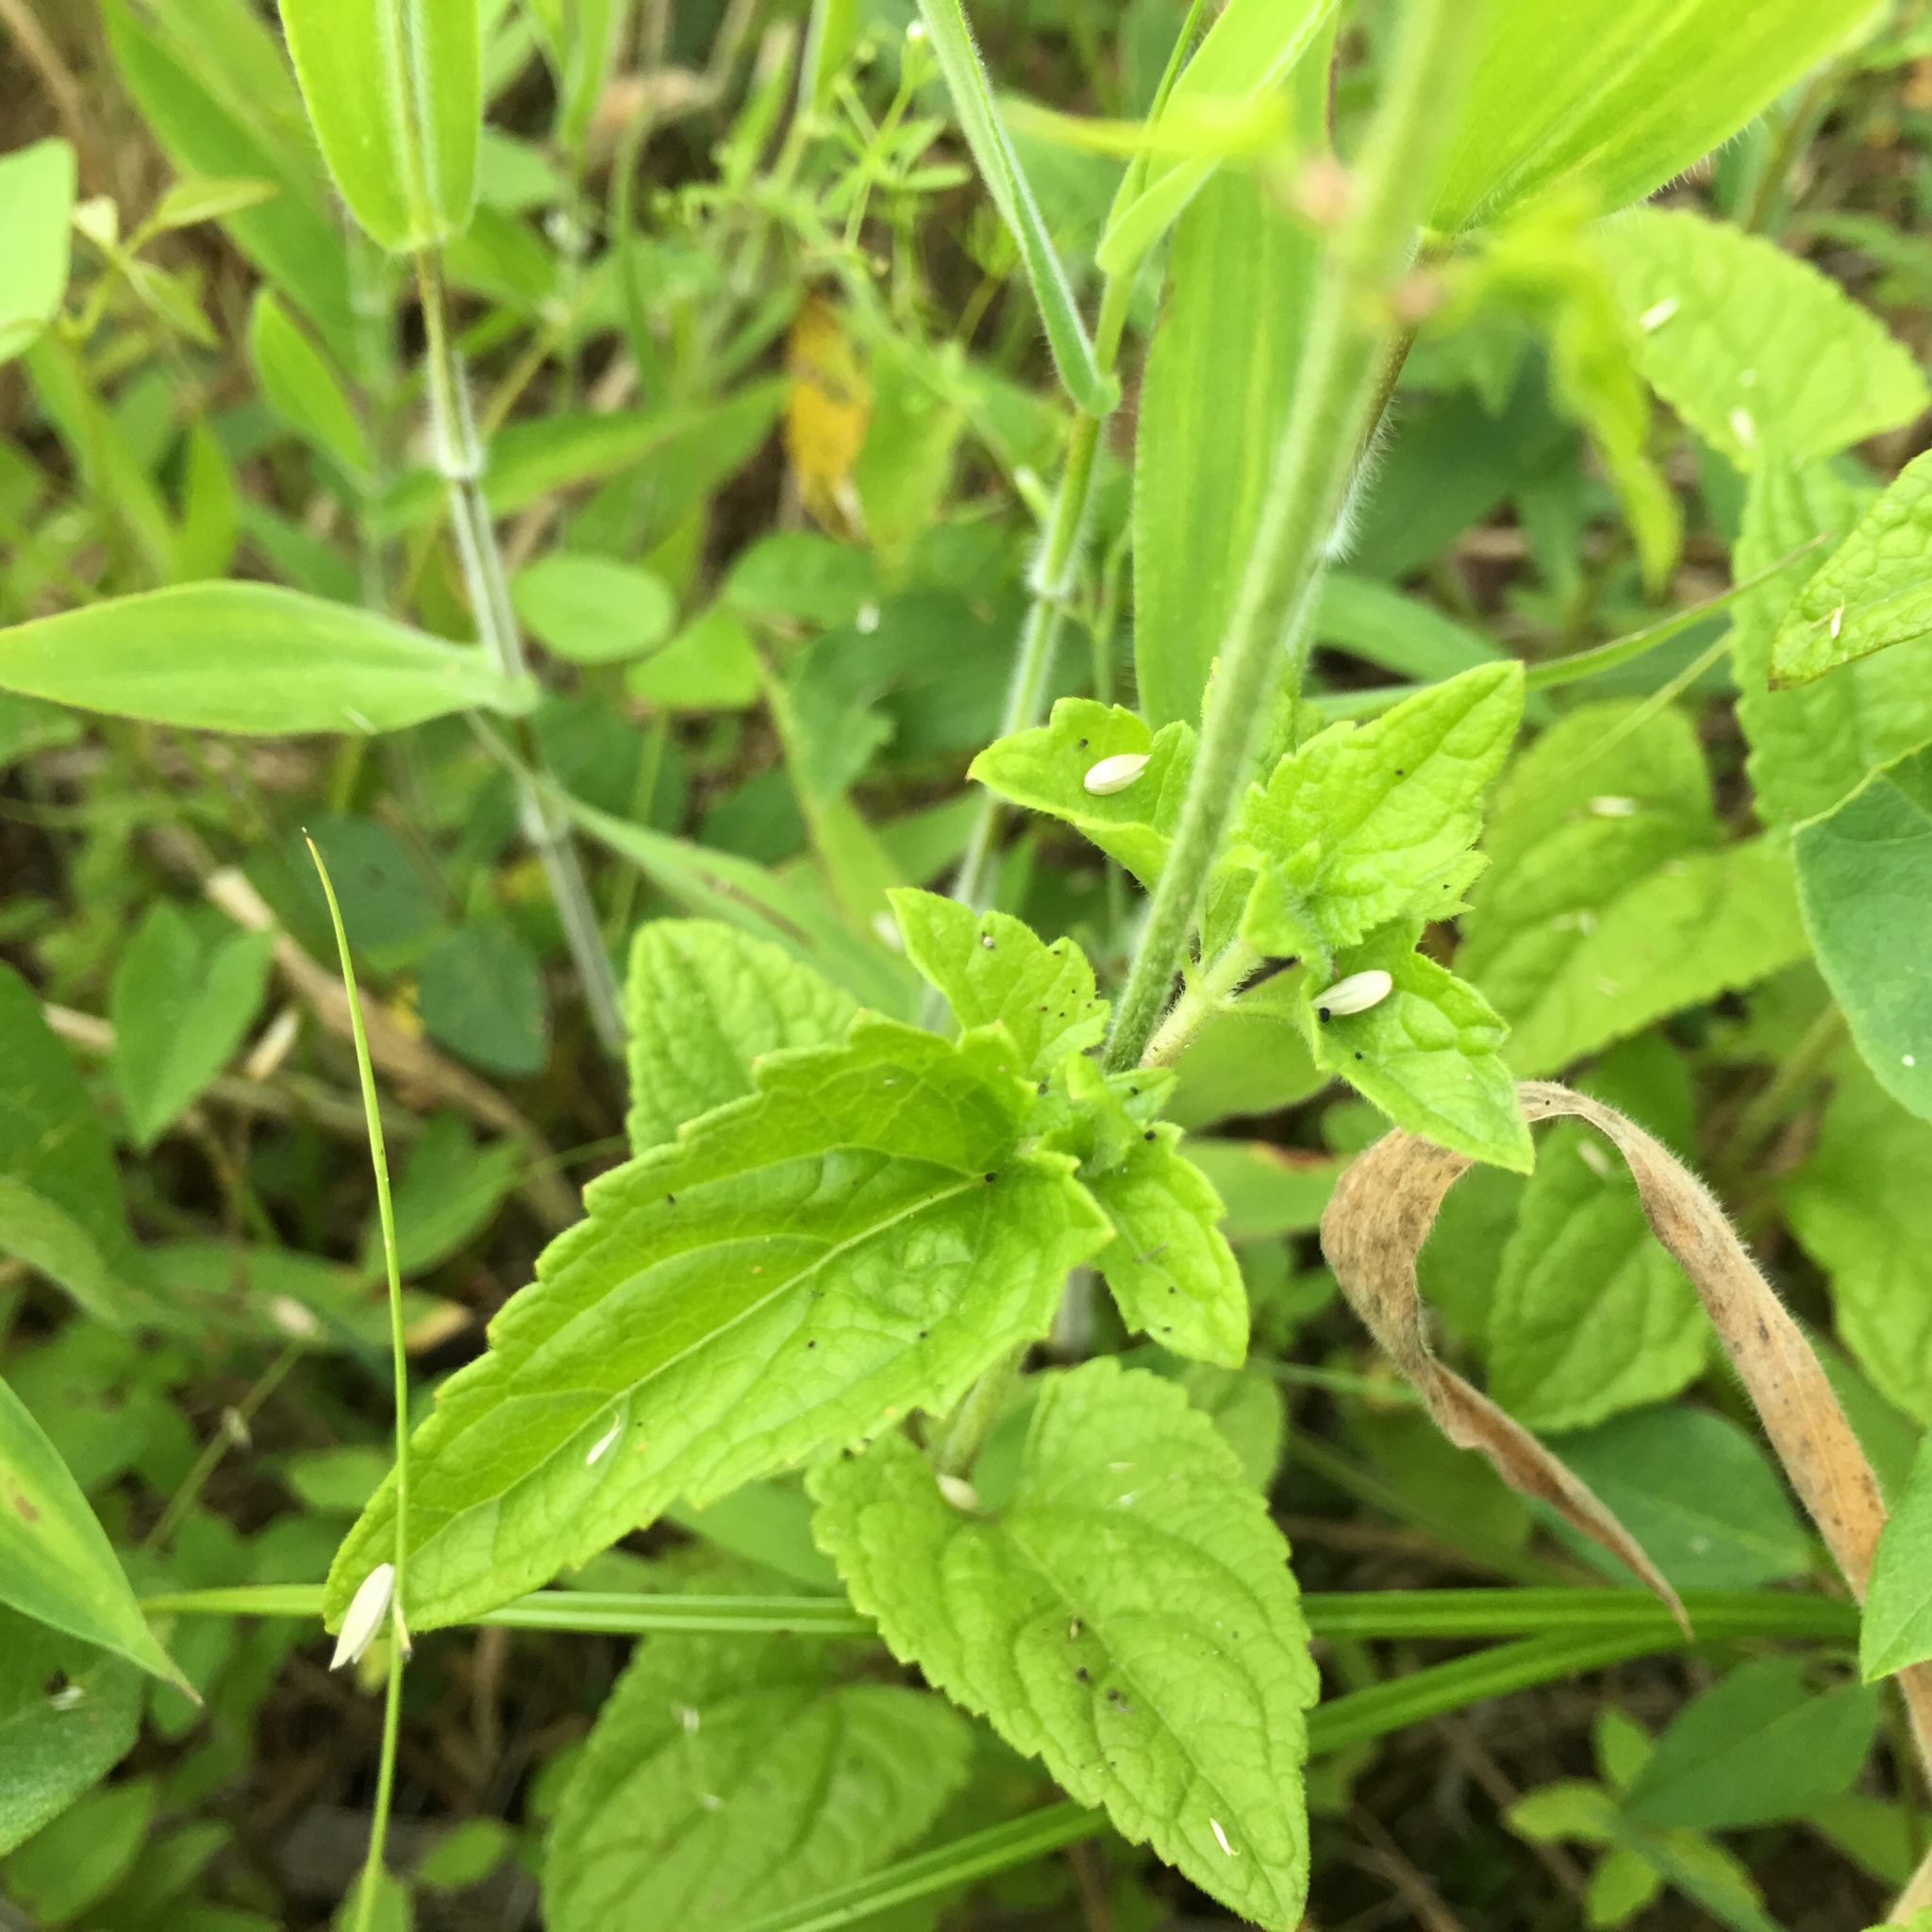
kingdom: Plantae
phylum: Tracheophyta
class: Magnoliopsida
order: Asterales
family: Asteraceae
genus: Conoclinium
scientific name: Conoclinium coelestinum
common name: Blue mistflower
